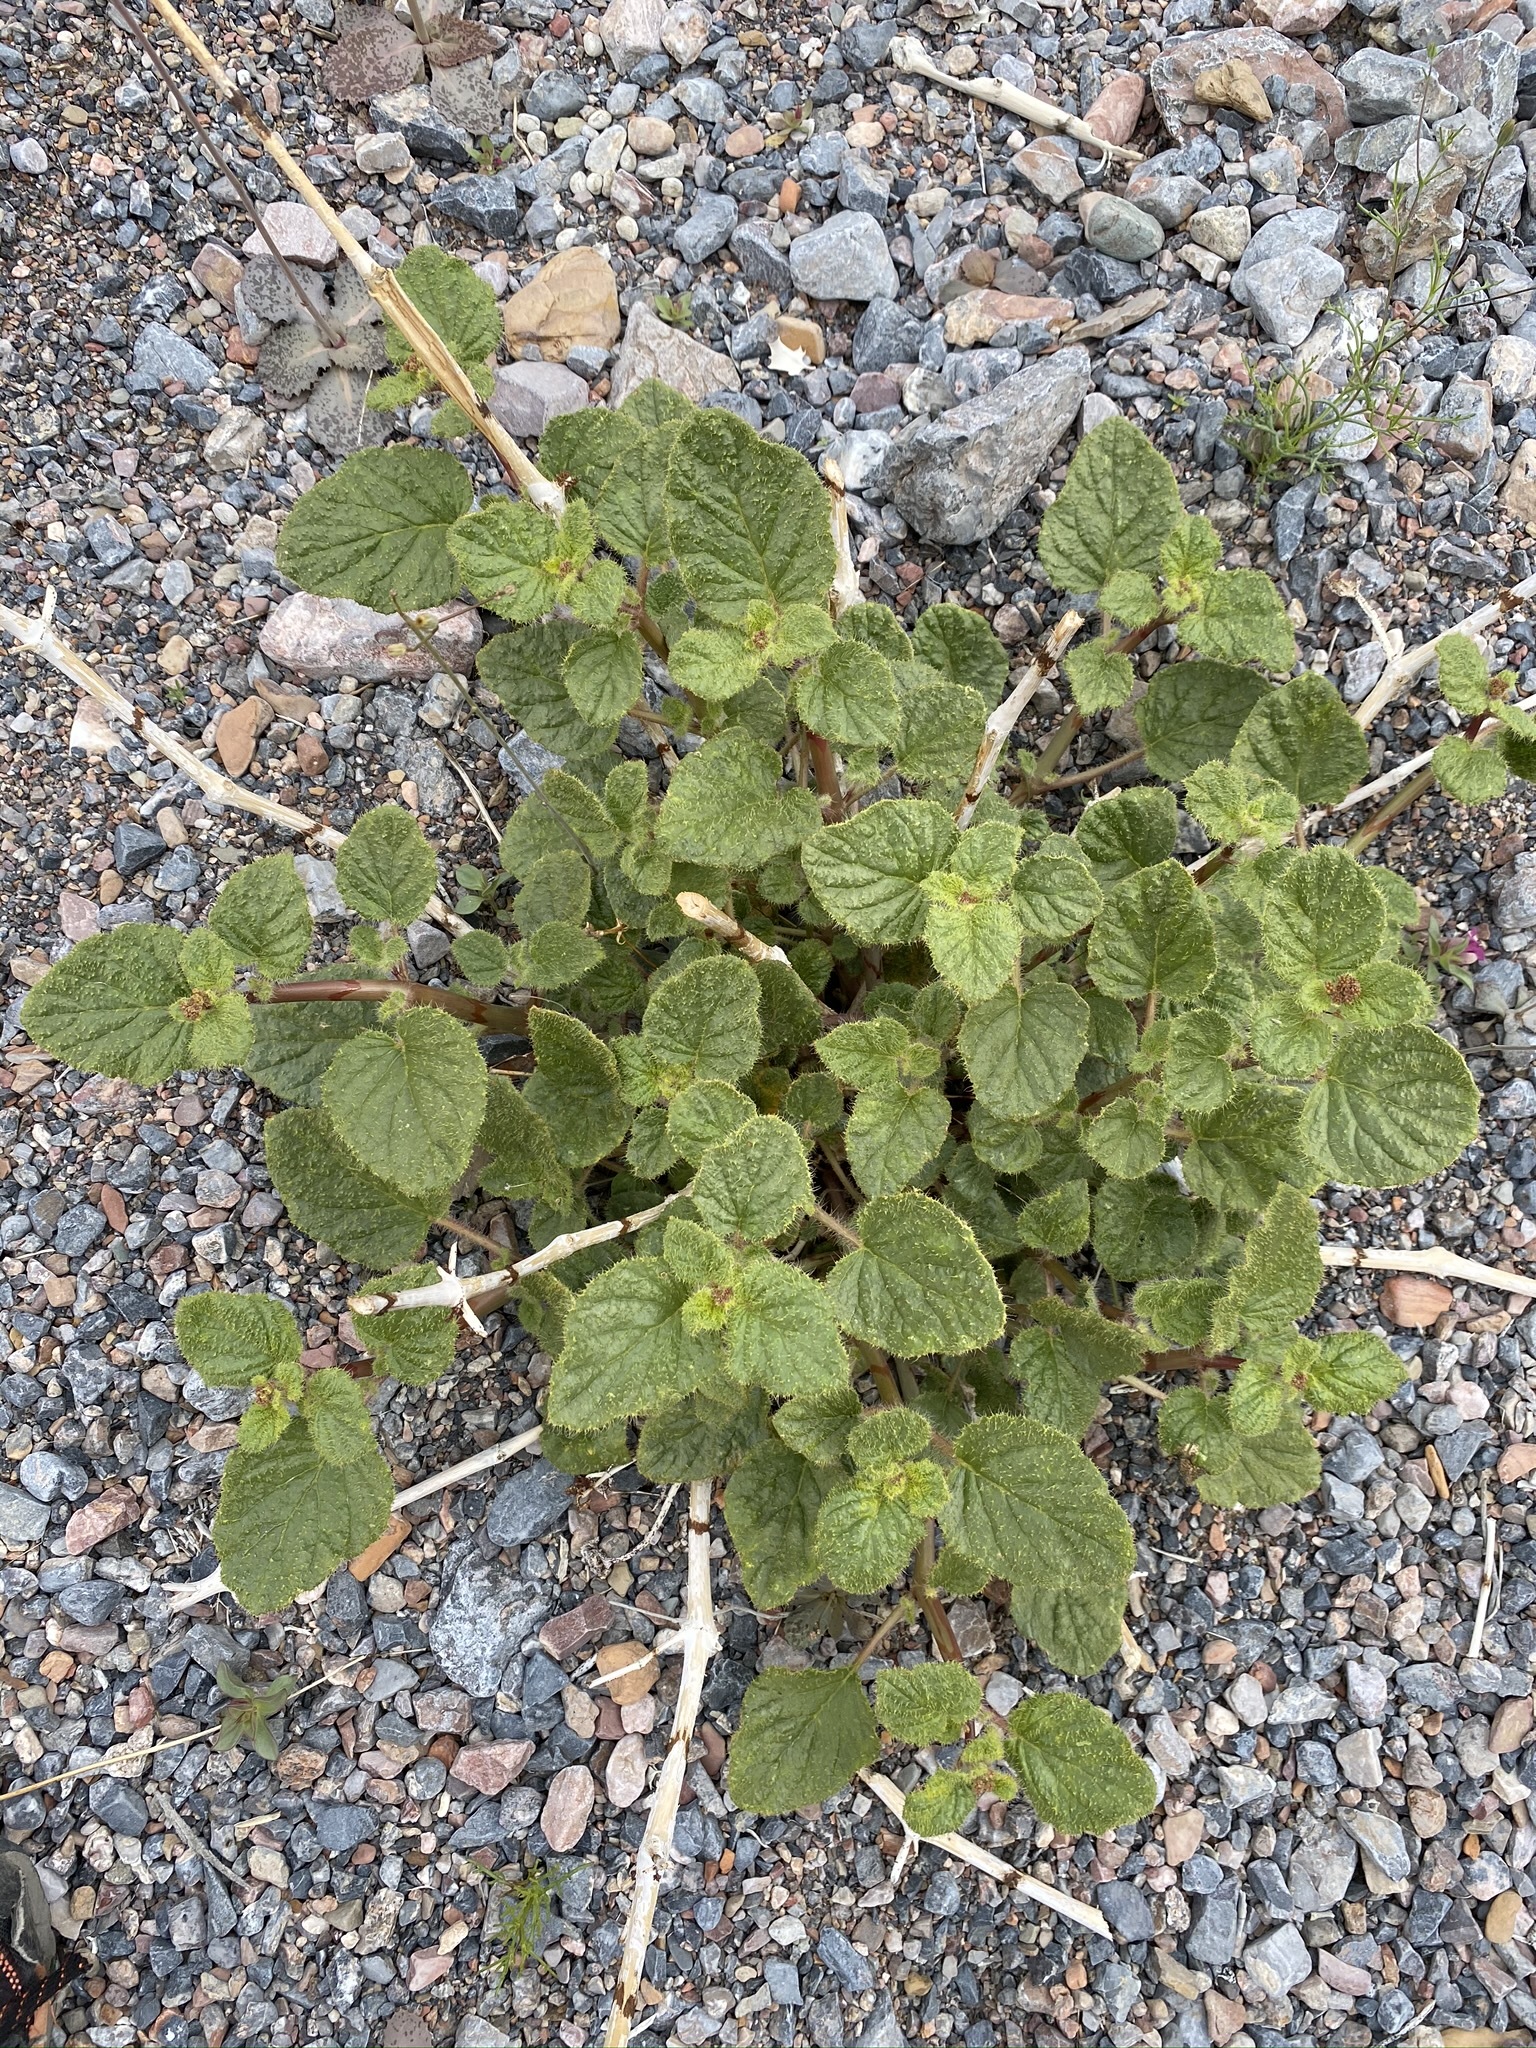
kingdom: Plantae
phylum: Tracheophyta
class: Magnoliopsida
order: Caryophyllales
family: Nyctaginaceae
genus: Anulocaulis
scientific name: Anulocaulis annulatus
